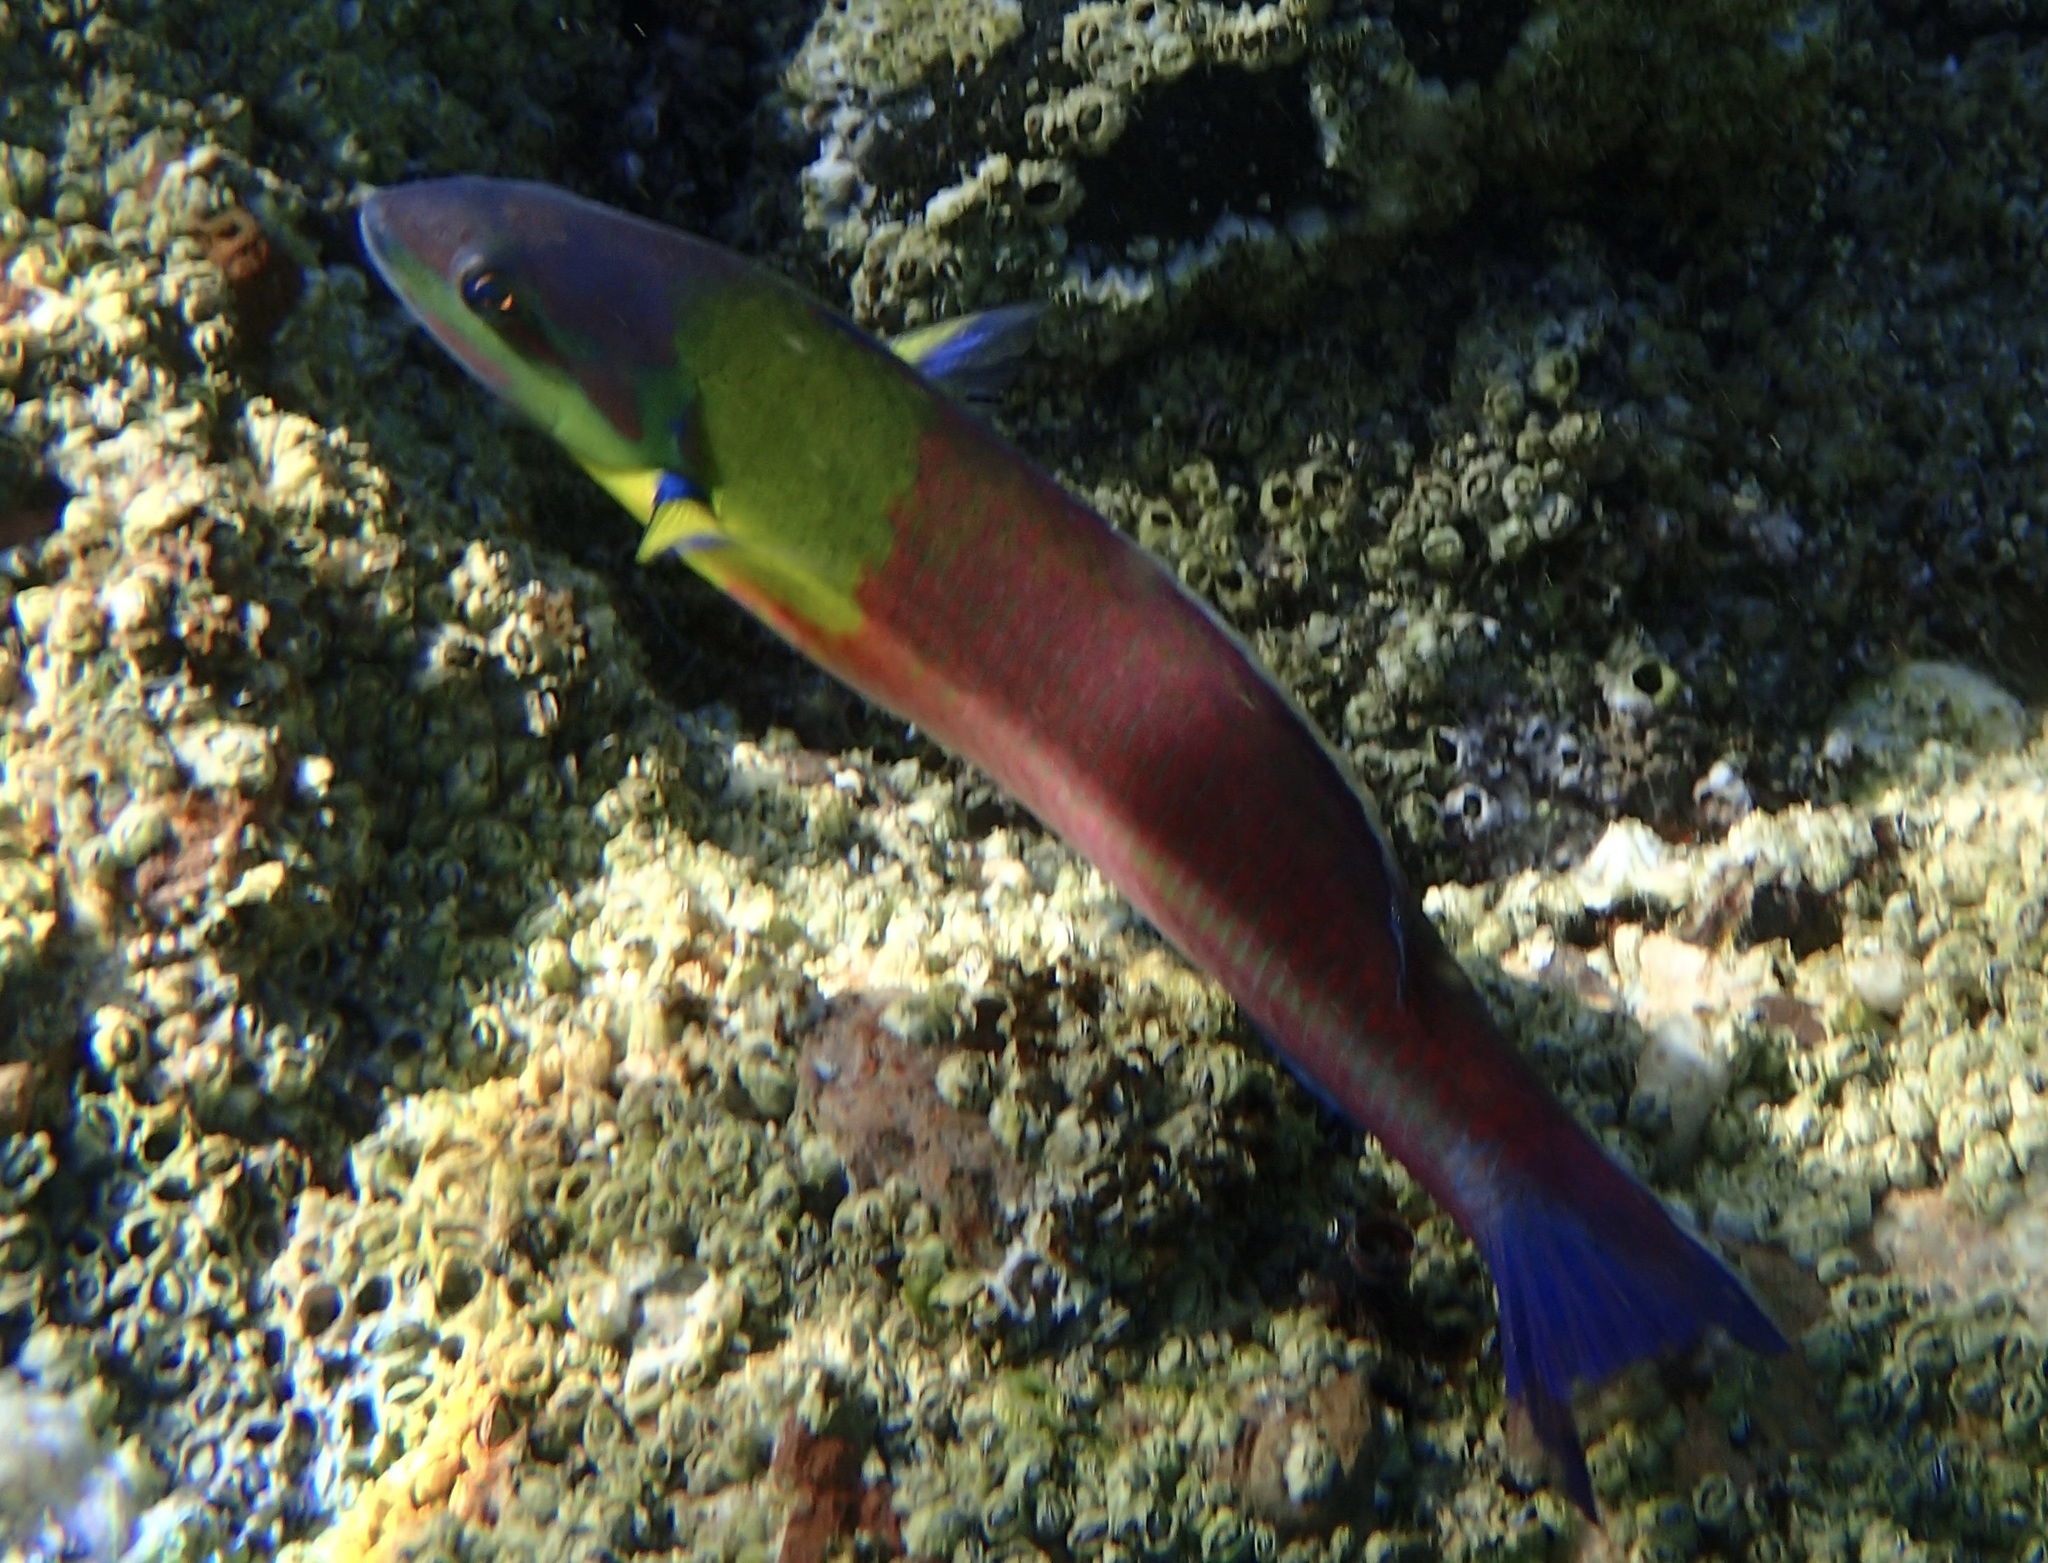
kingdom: Animalia
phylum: Chordata
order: Perciformes
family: Labridae
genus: Thalassoma
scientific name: Thalassoma lucasanum
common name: Cortez rainbow wrasse
